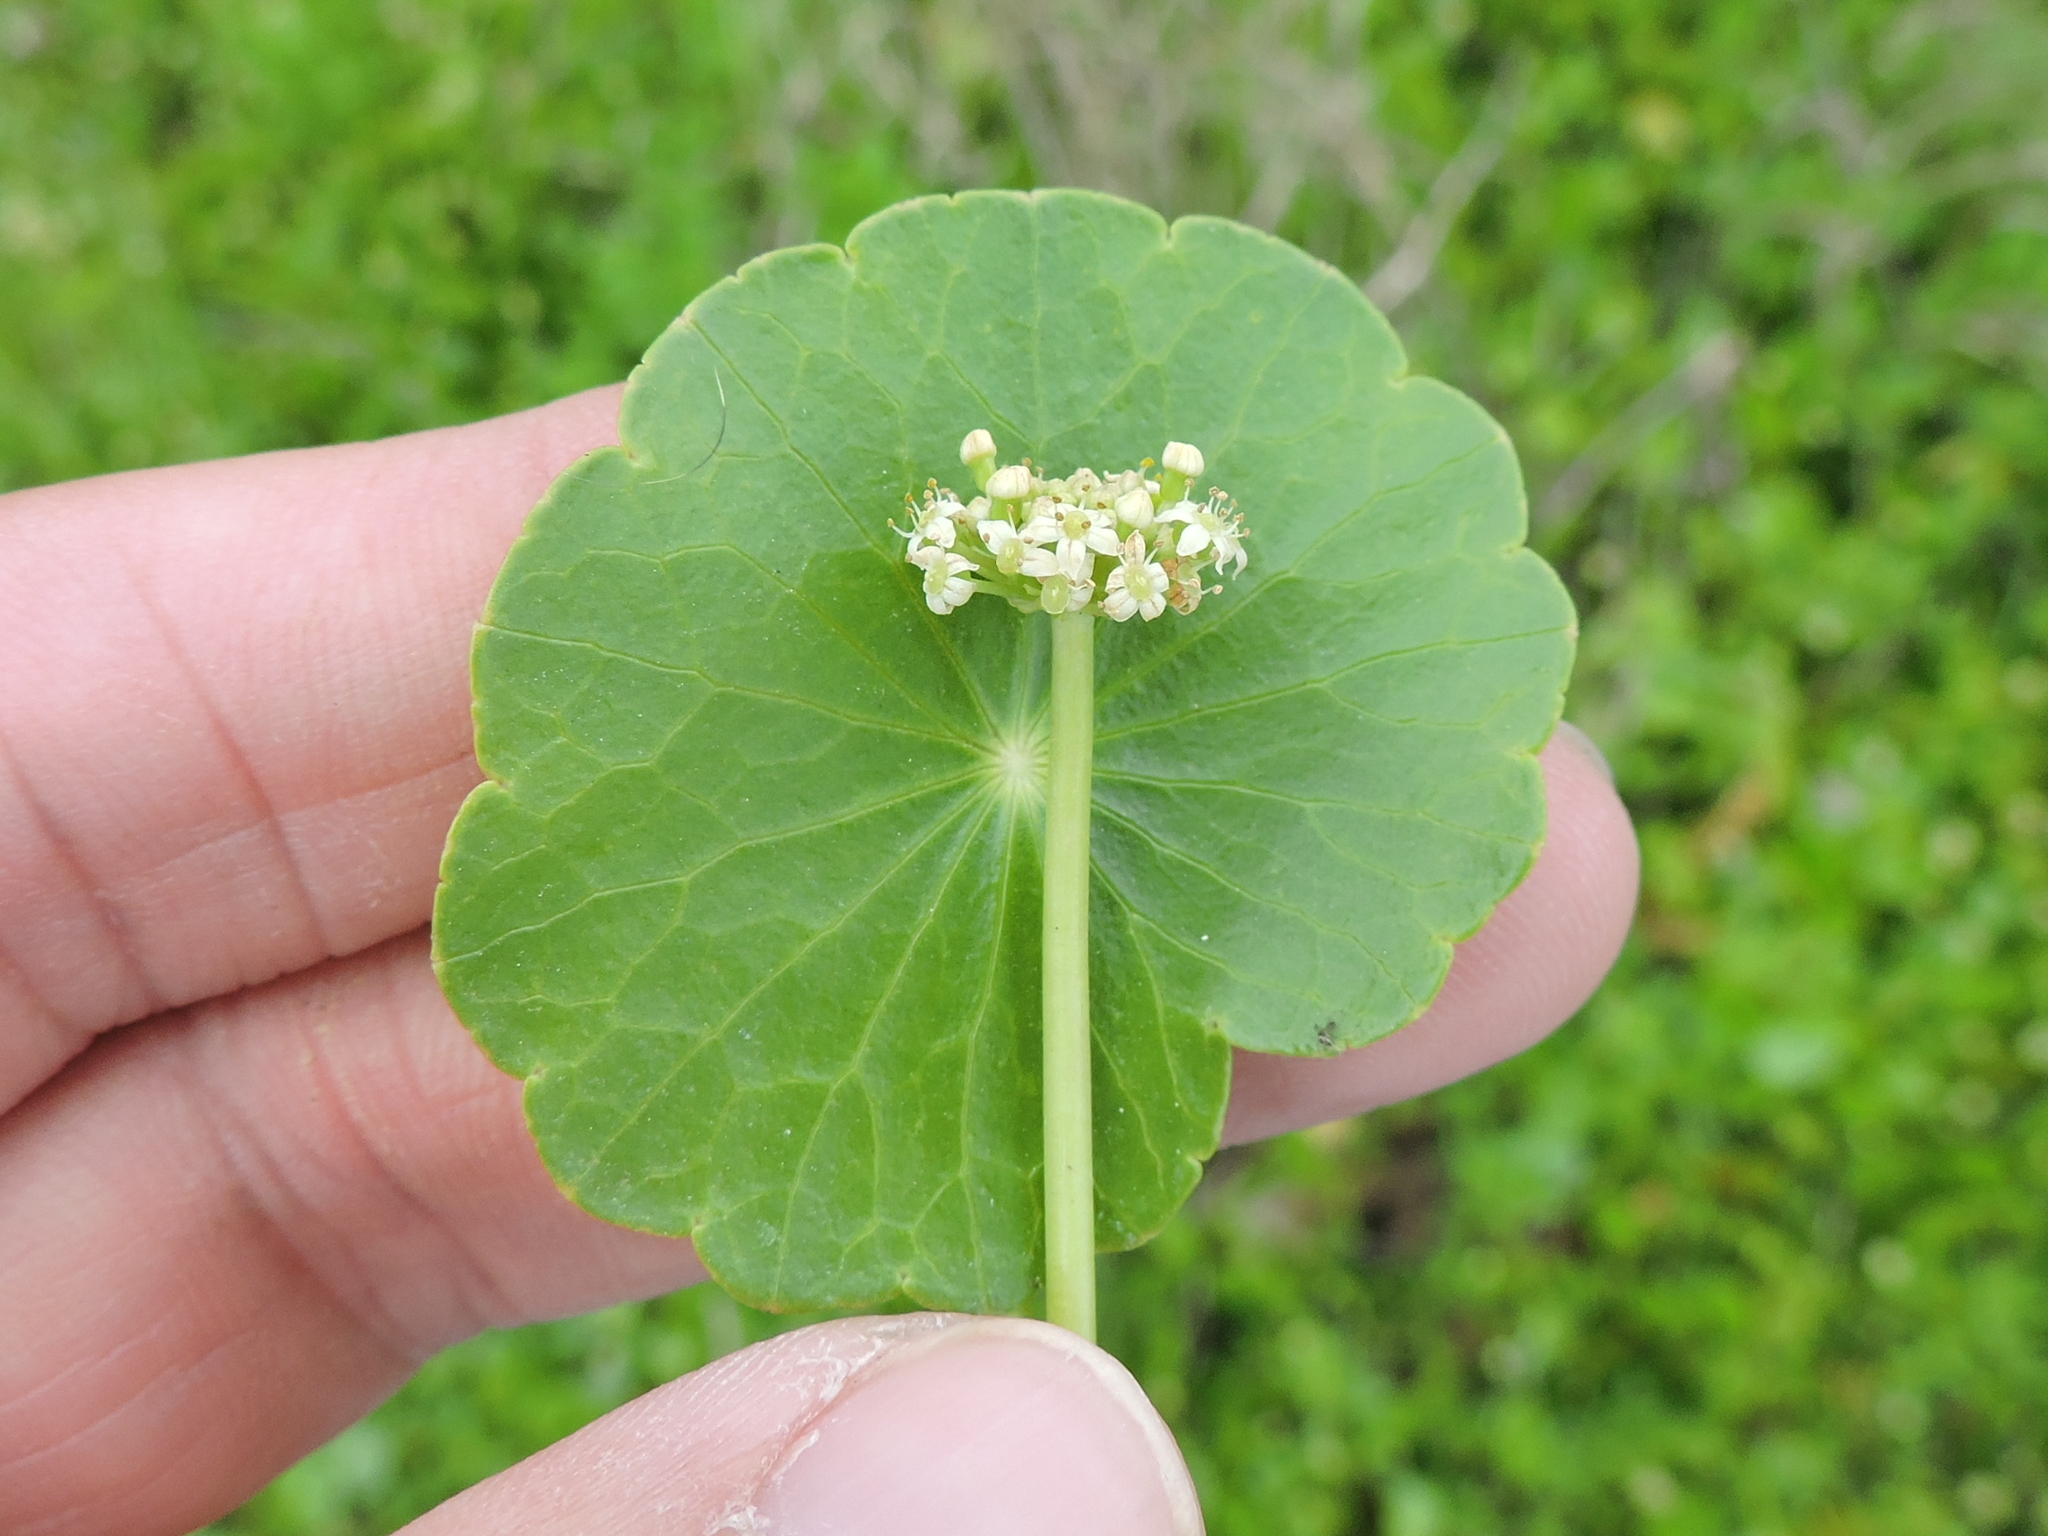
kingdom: Plantae
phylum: Tracheophyta
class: Magnoliopsida
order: Apiales
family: Araliaceae
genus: Hydrocotyle
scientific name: Hydrocotyle umbellata
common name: Water pennywort
